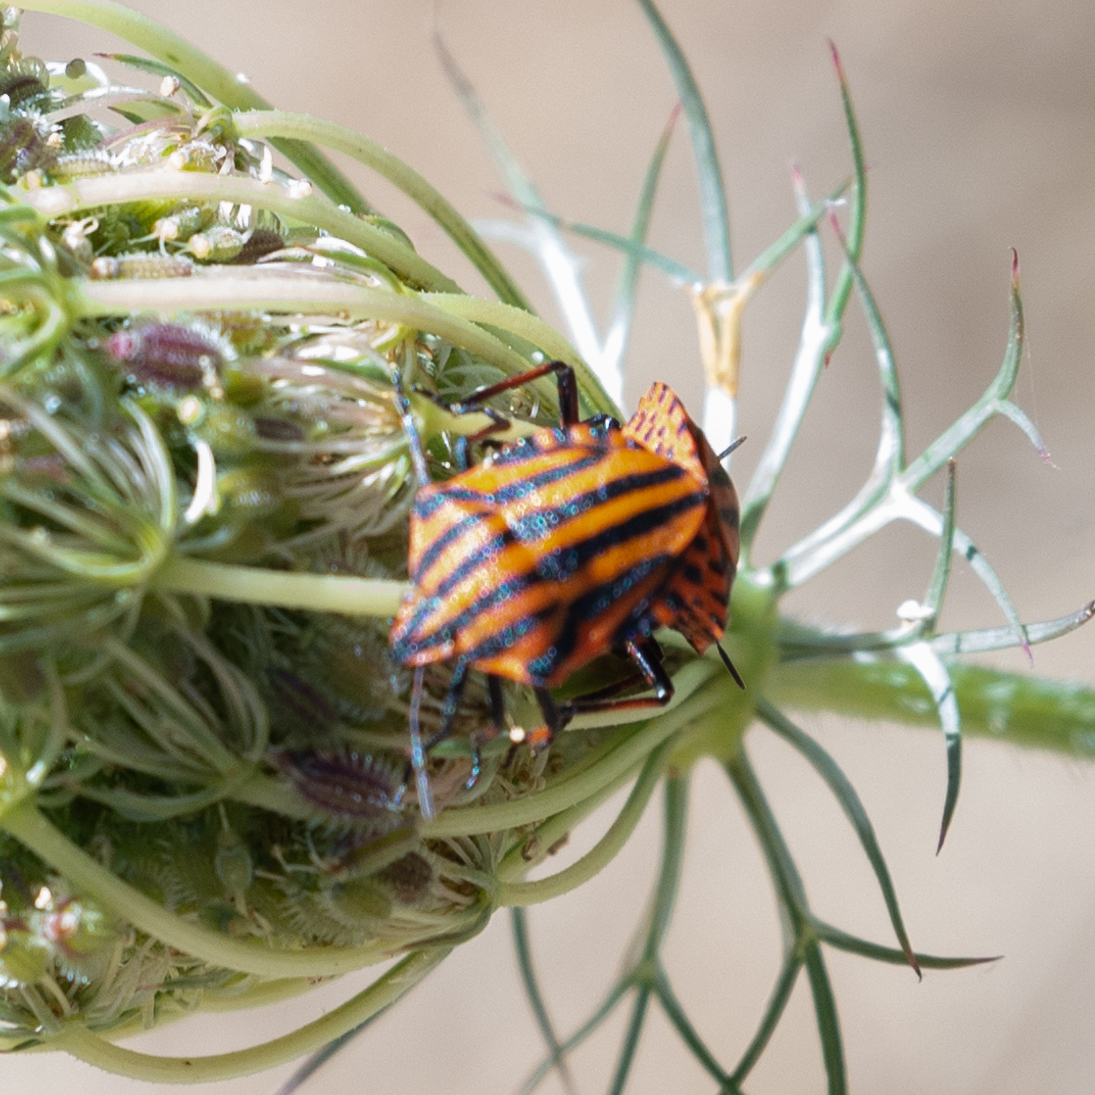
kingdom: Animalia
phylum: Arthropoda
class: Insecta
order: Hemiptera
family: Pentatomidae
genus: Graphosoma
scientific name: Graphosoma italicum
